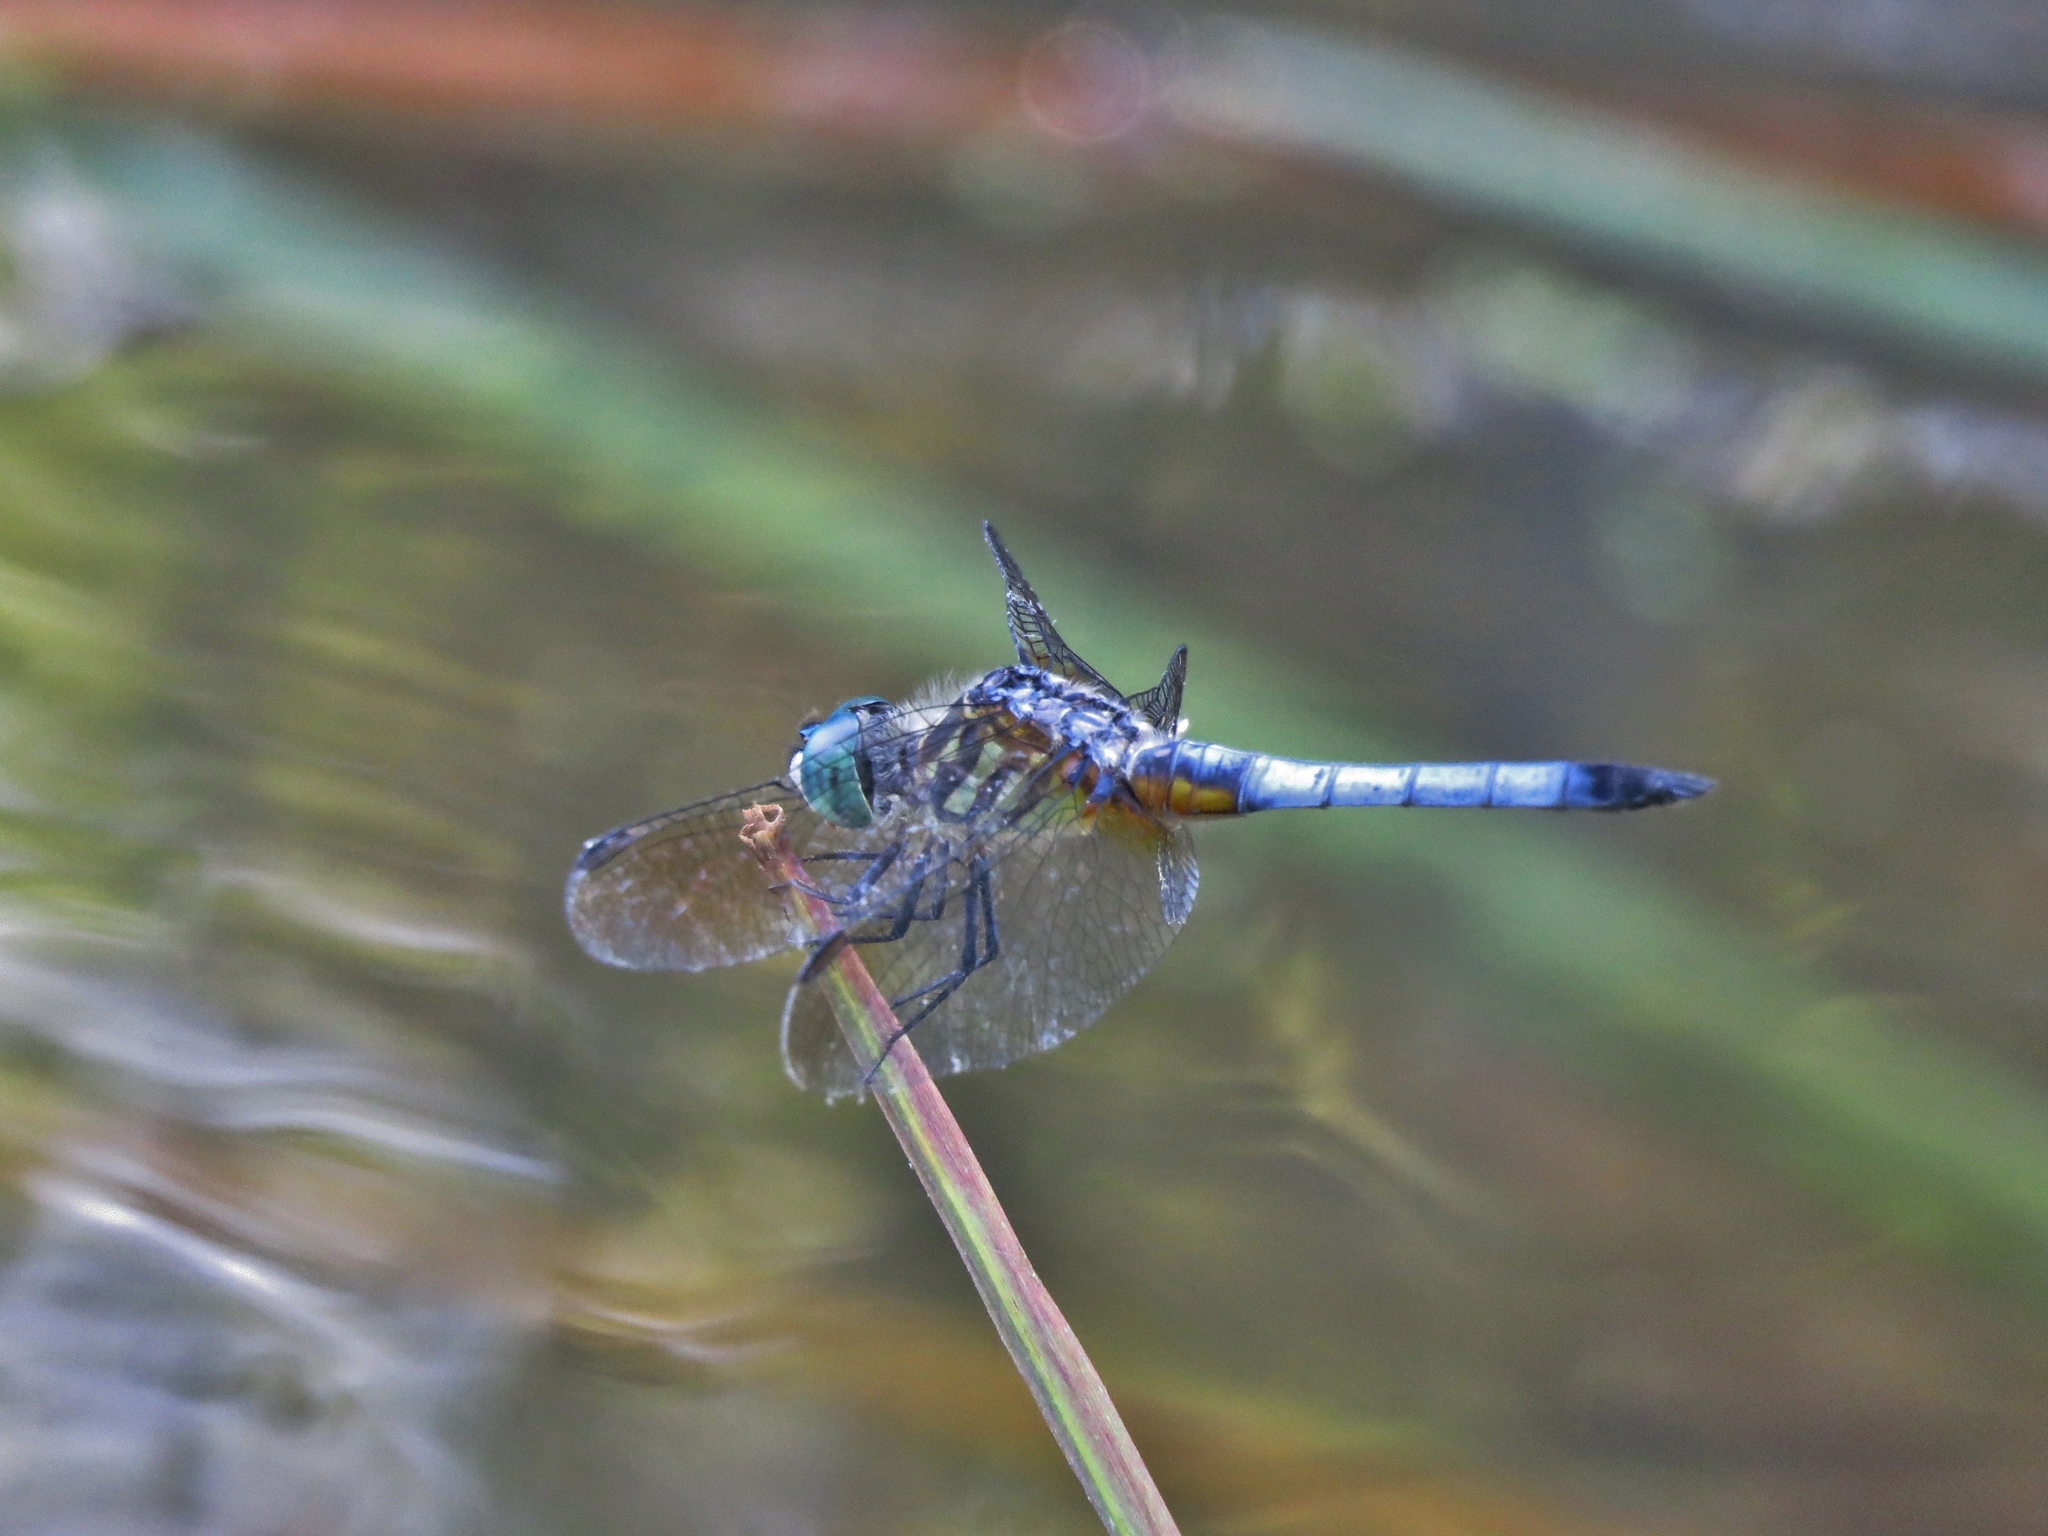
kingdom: Animalia
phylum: Arthropoda
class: Insecta
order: Odonata
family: Libellulidae
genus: Pachydiplax
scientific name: Pachydiplax longipennis
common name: Blue dasher
